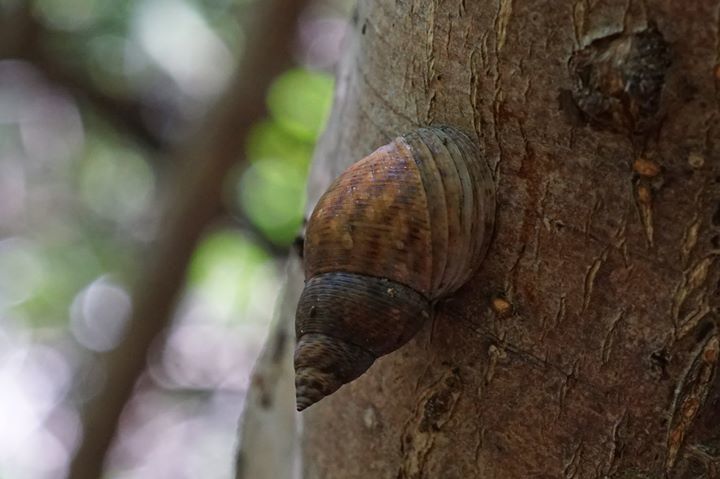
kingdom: Animalia
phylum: Mollusca
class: Gastropoda
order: Littorinimorpha
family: Littorinidae
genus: Littoraria
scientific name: Littoraria angulifera
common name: Mangrove periwinkle
